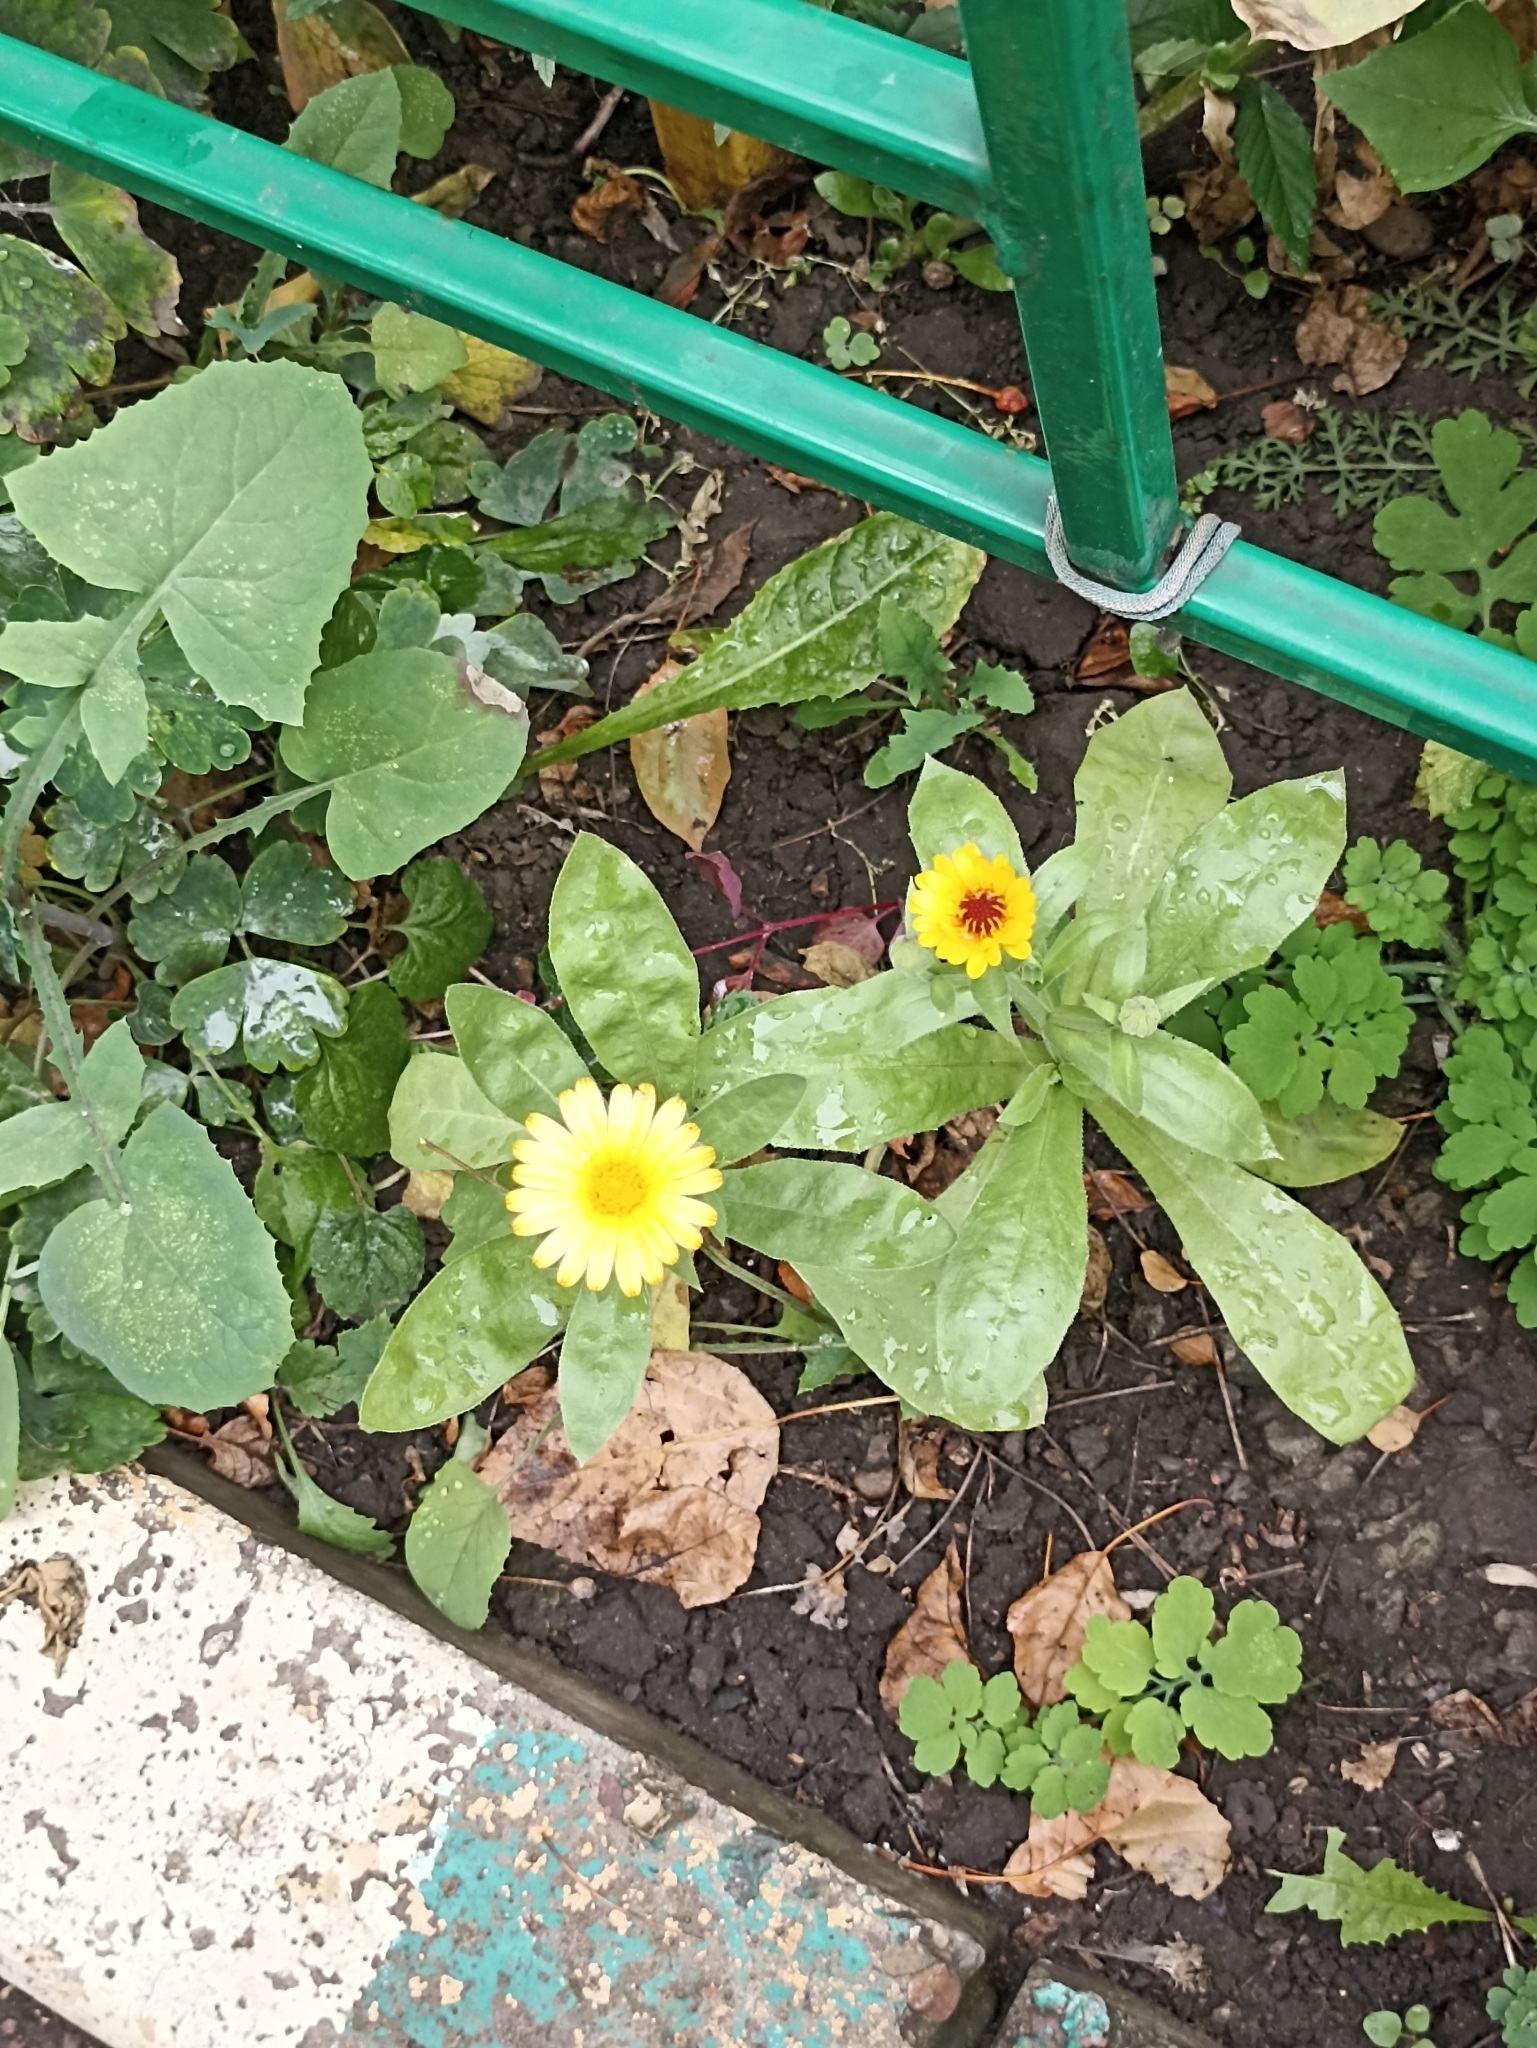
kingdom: Plantae
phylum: Tracheophyta
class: Magnoliopsida
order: Asterales
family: Asteraceae
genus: Calendula
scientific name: Calendula officinalis
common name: Pot marigold
